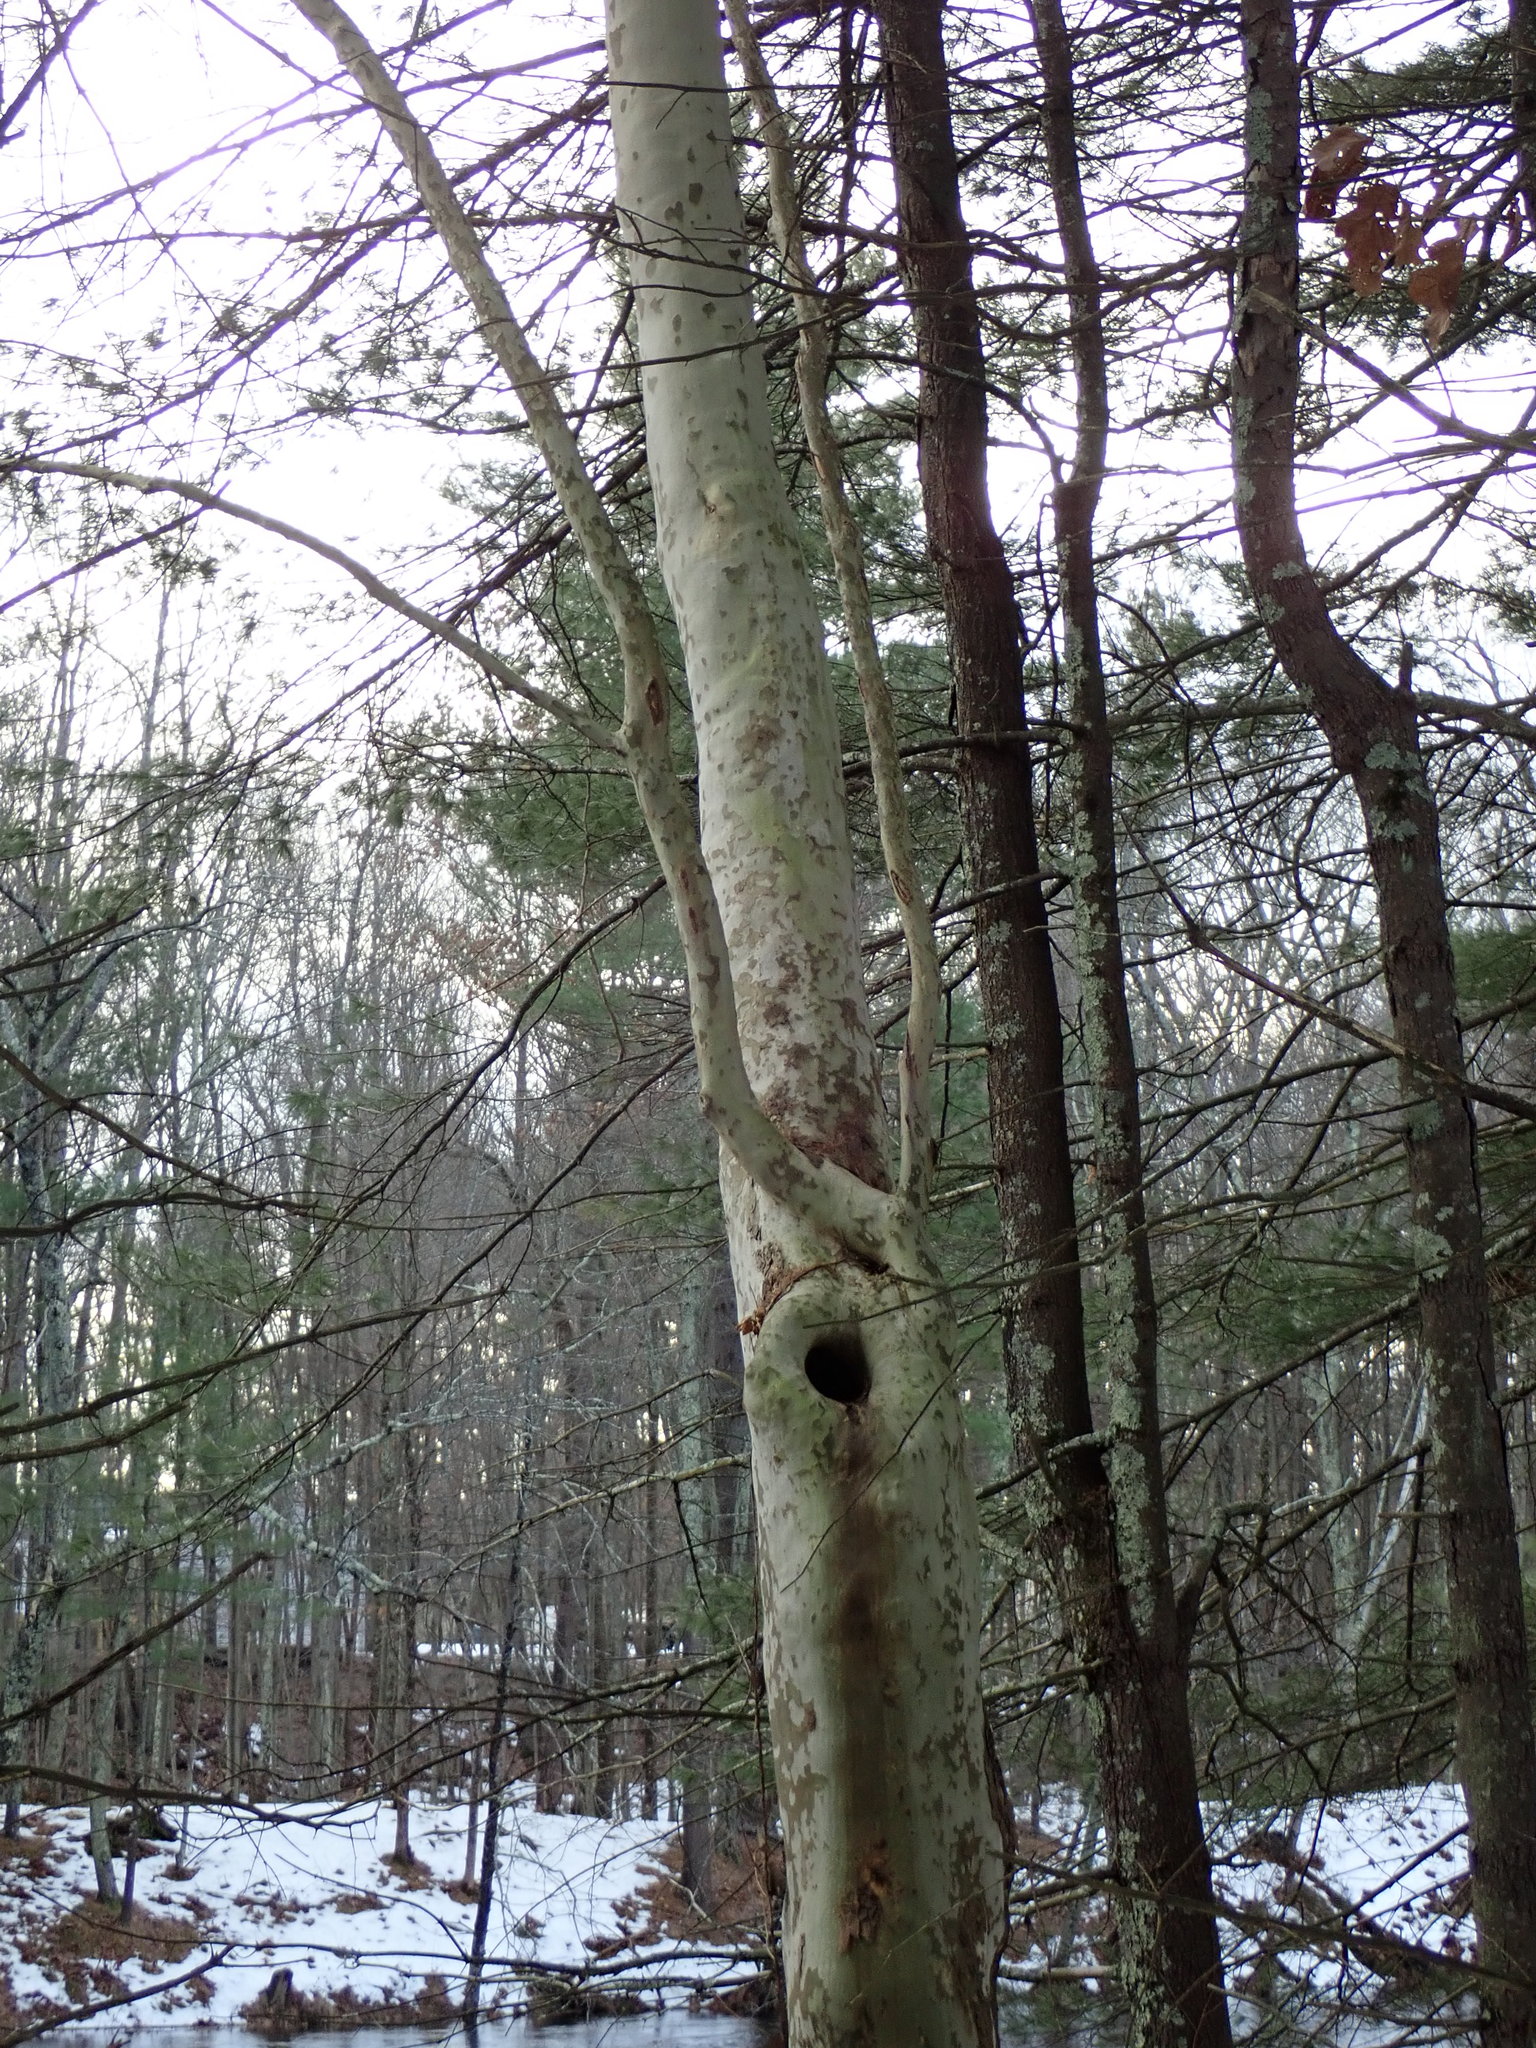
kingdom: Plantae
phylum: Tracheophyta
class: Magnoliopsida
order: Proteales
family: Platanaceae
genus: Platanus
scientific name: Platanus occidentalis
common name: American sycamore
